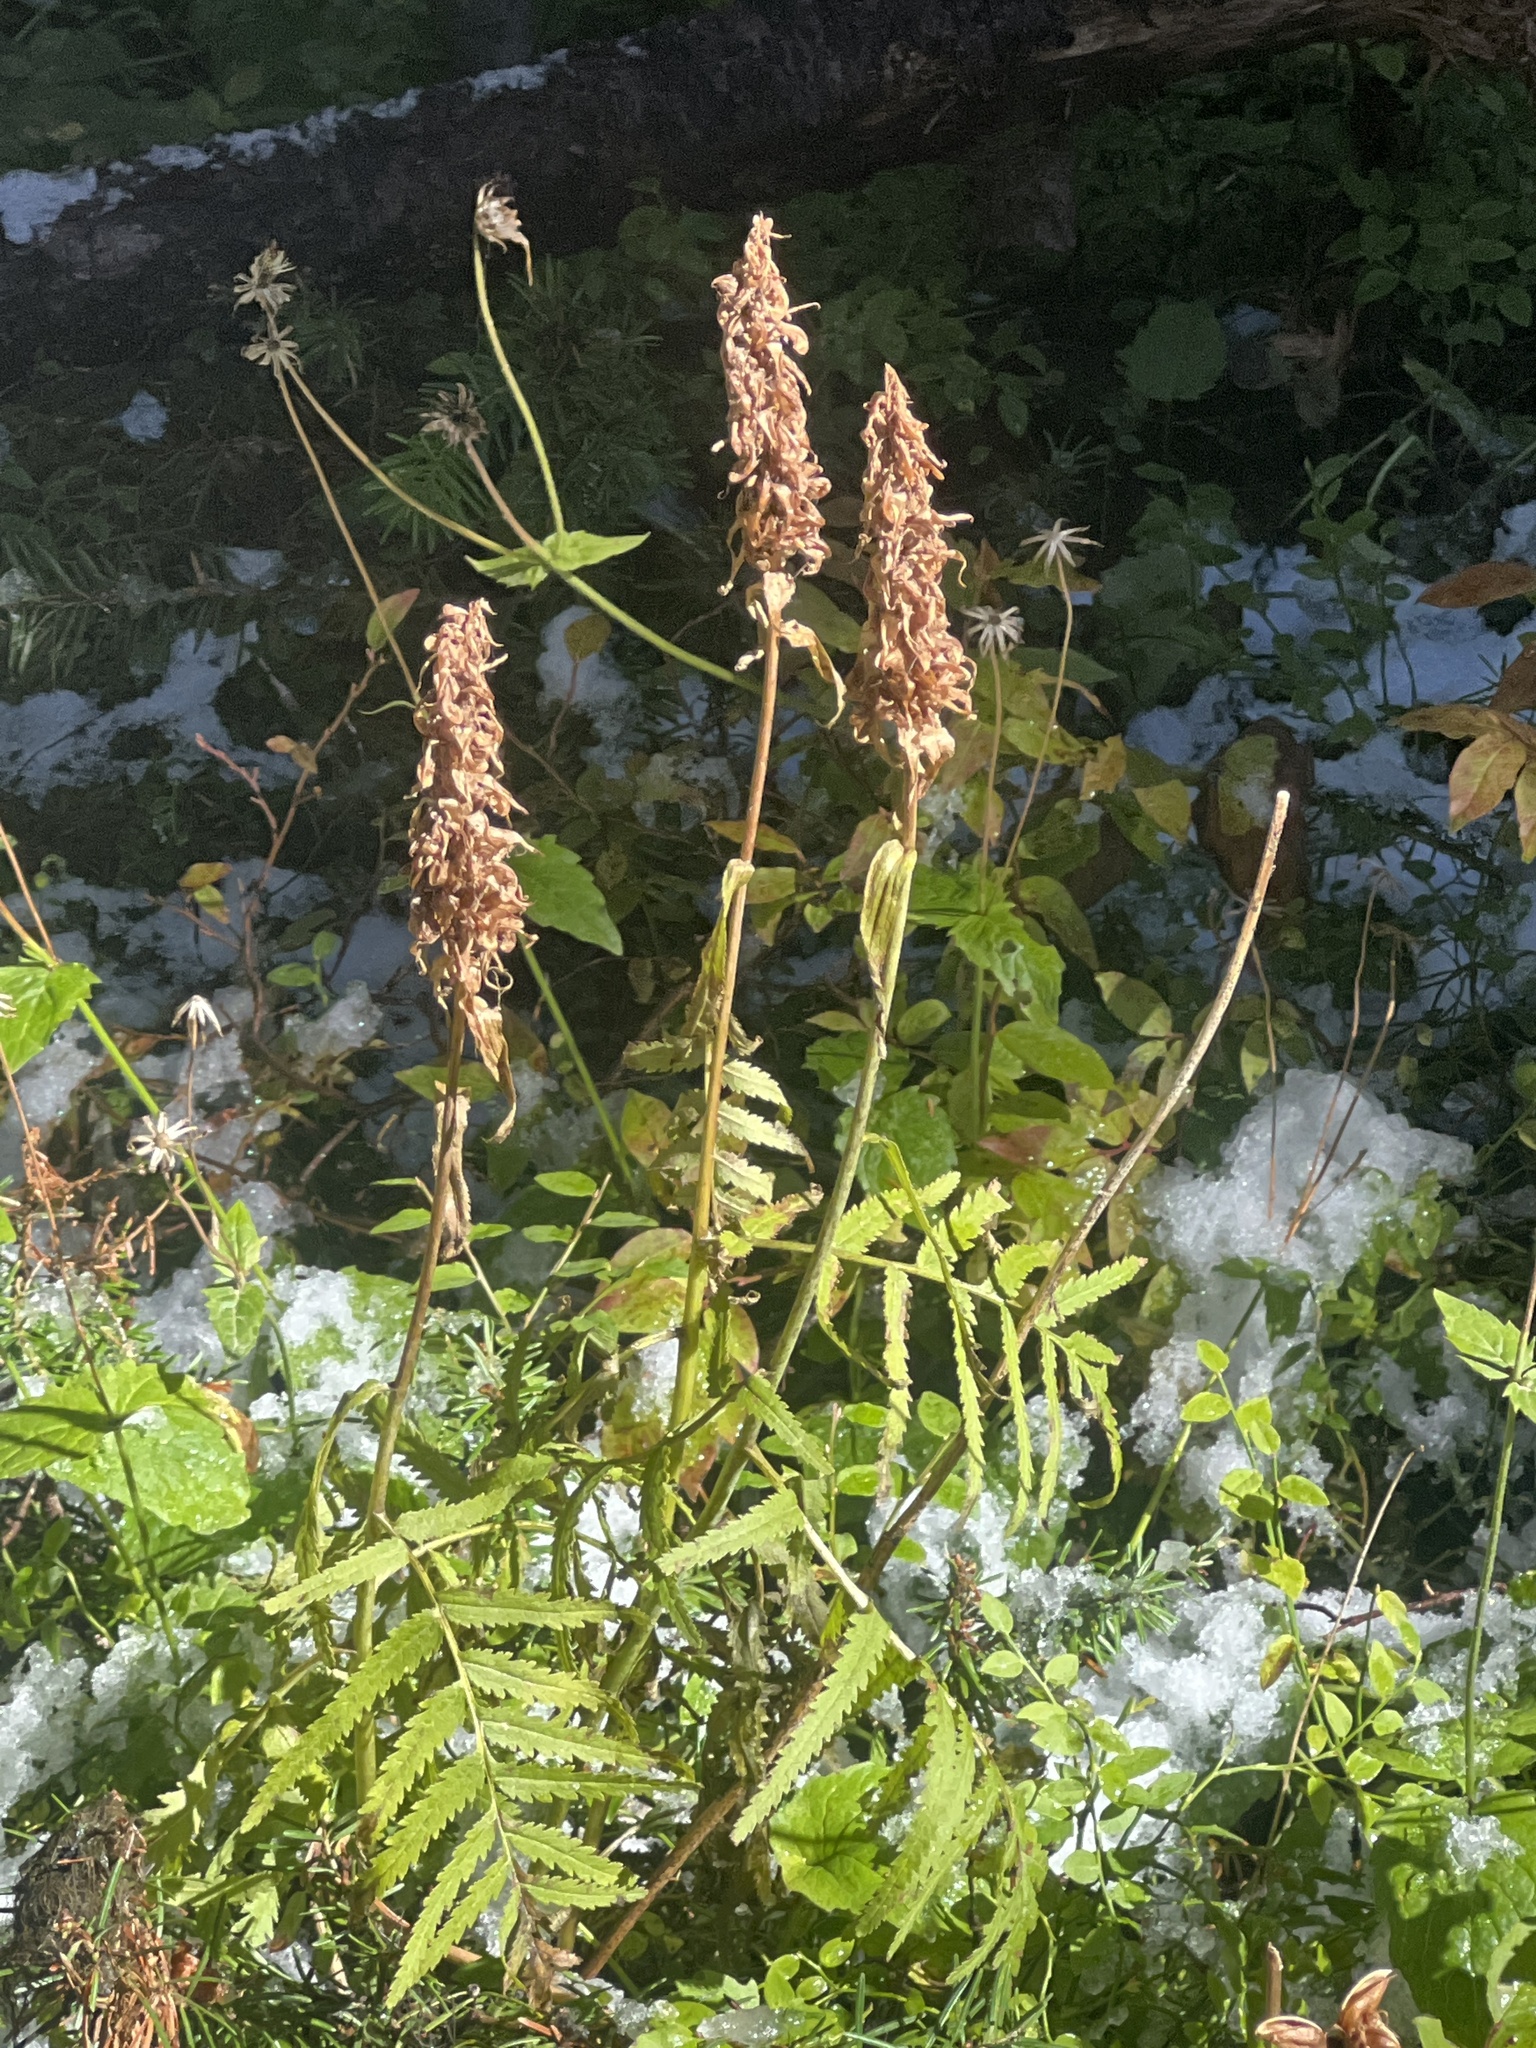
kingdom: Plantae
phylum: Tracheophyta
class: Magnoliopsida
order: Lamiales
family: Orobanchaceae
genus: Pedicularis
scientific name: Pedicularis bracteosa
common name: Bracted lousewort
